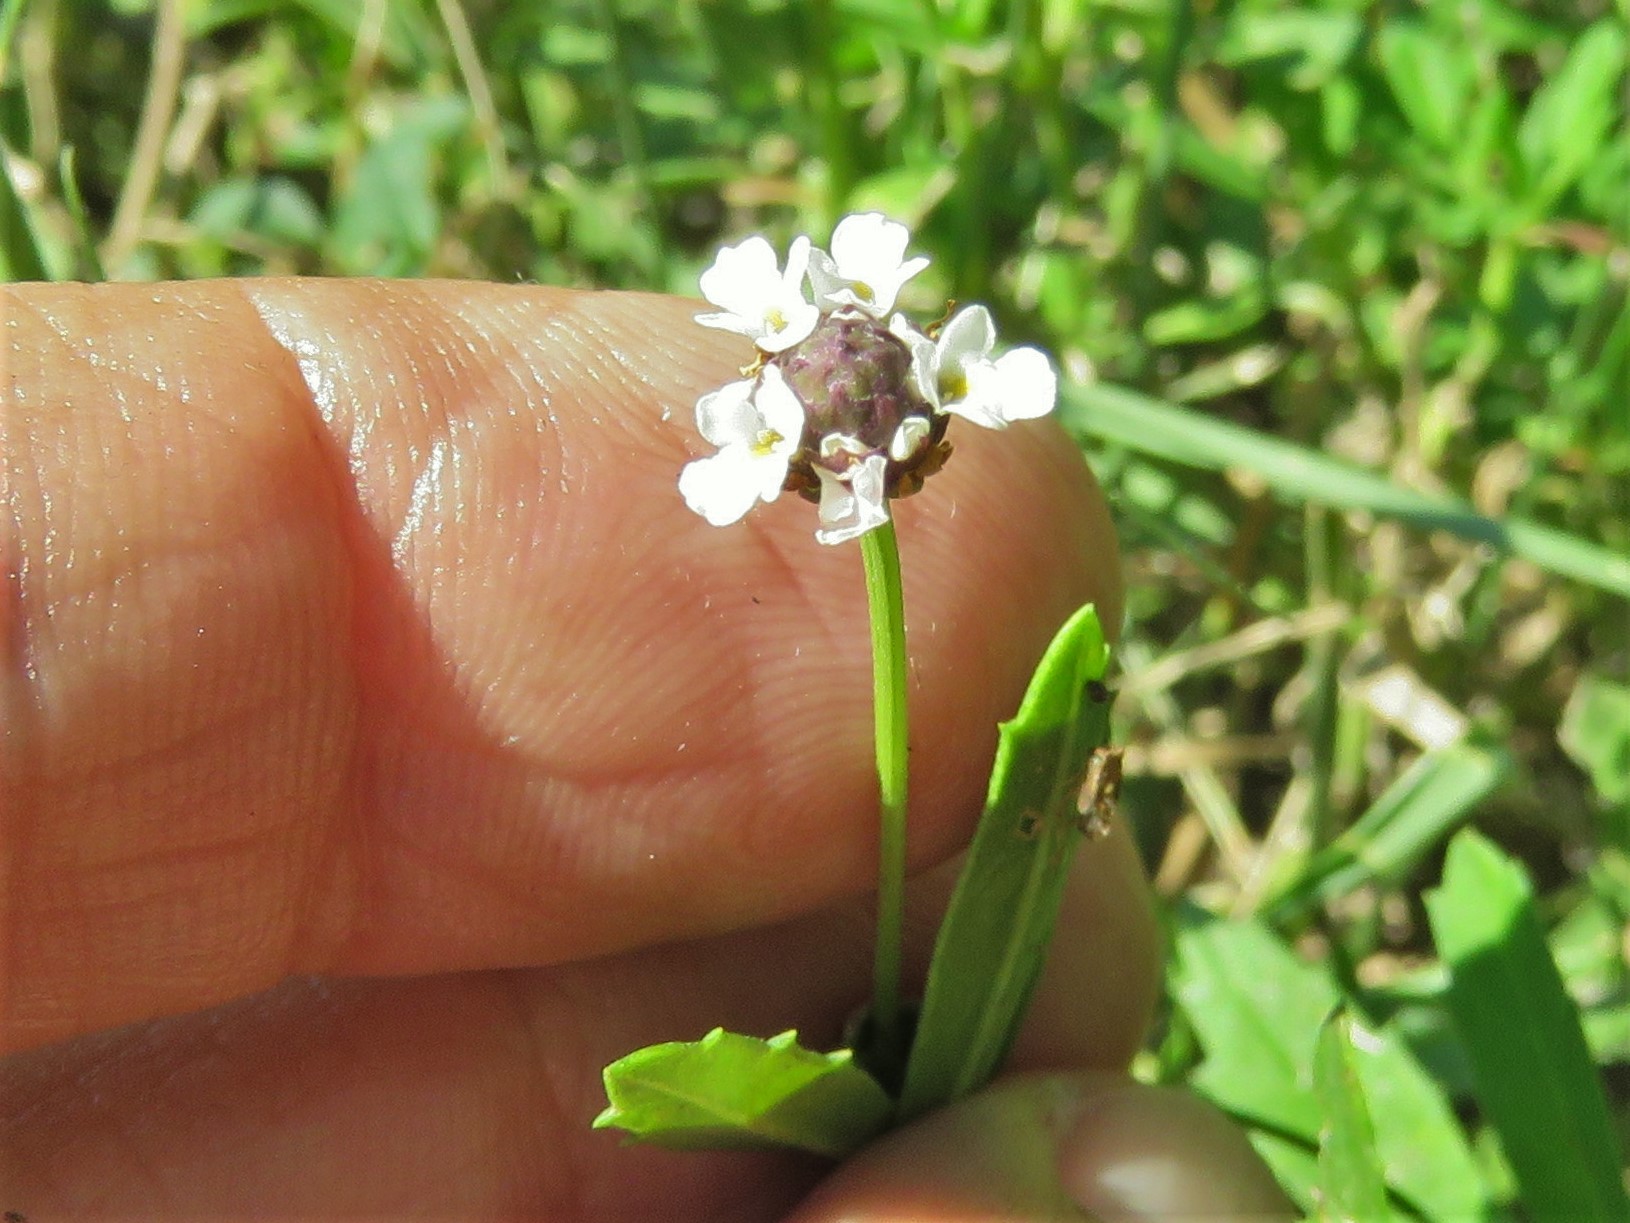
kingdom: Plantae
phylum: Tracheophyta
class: Magnoliopsida
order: Lamiales
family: Verbenaceae
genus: Phyla
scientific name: Phyla nodiflora
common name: Frogfruit
